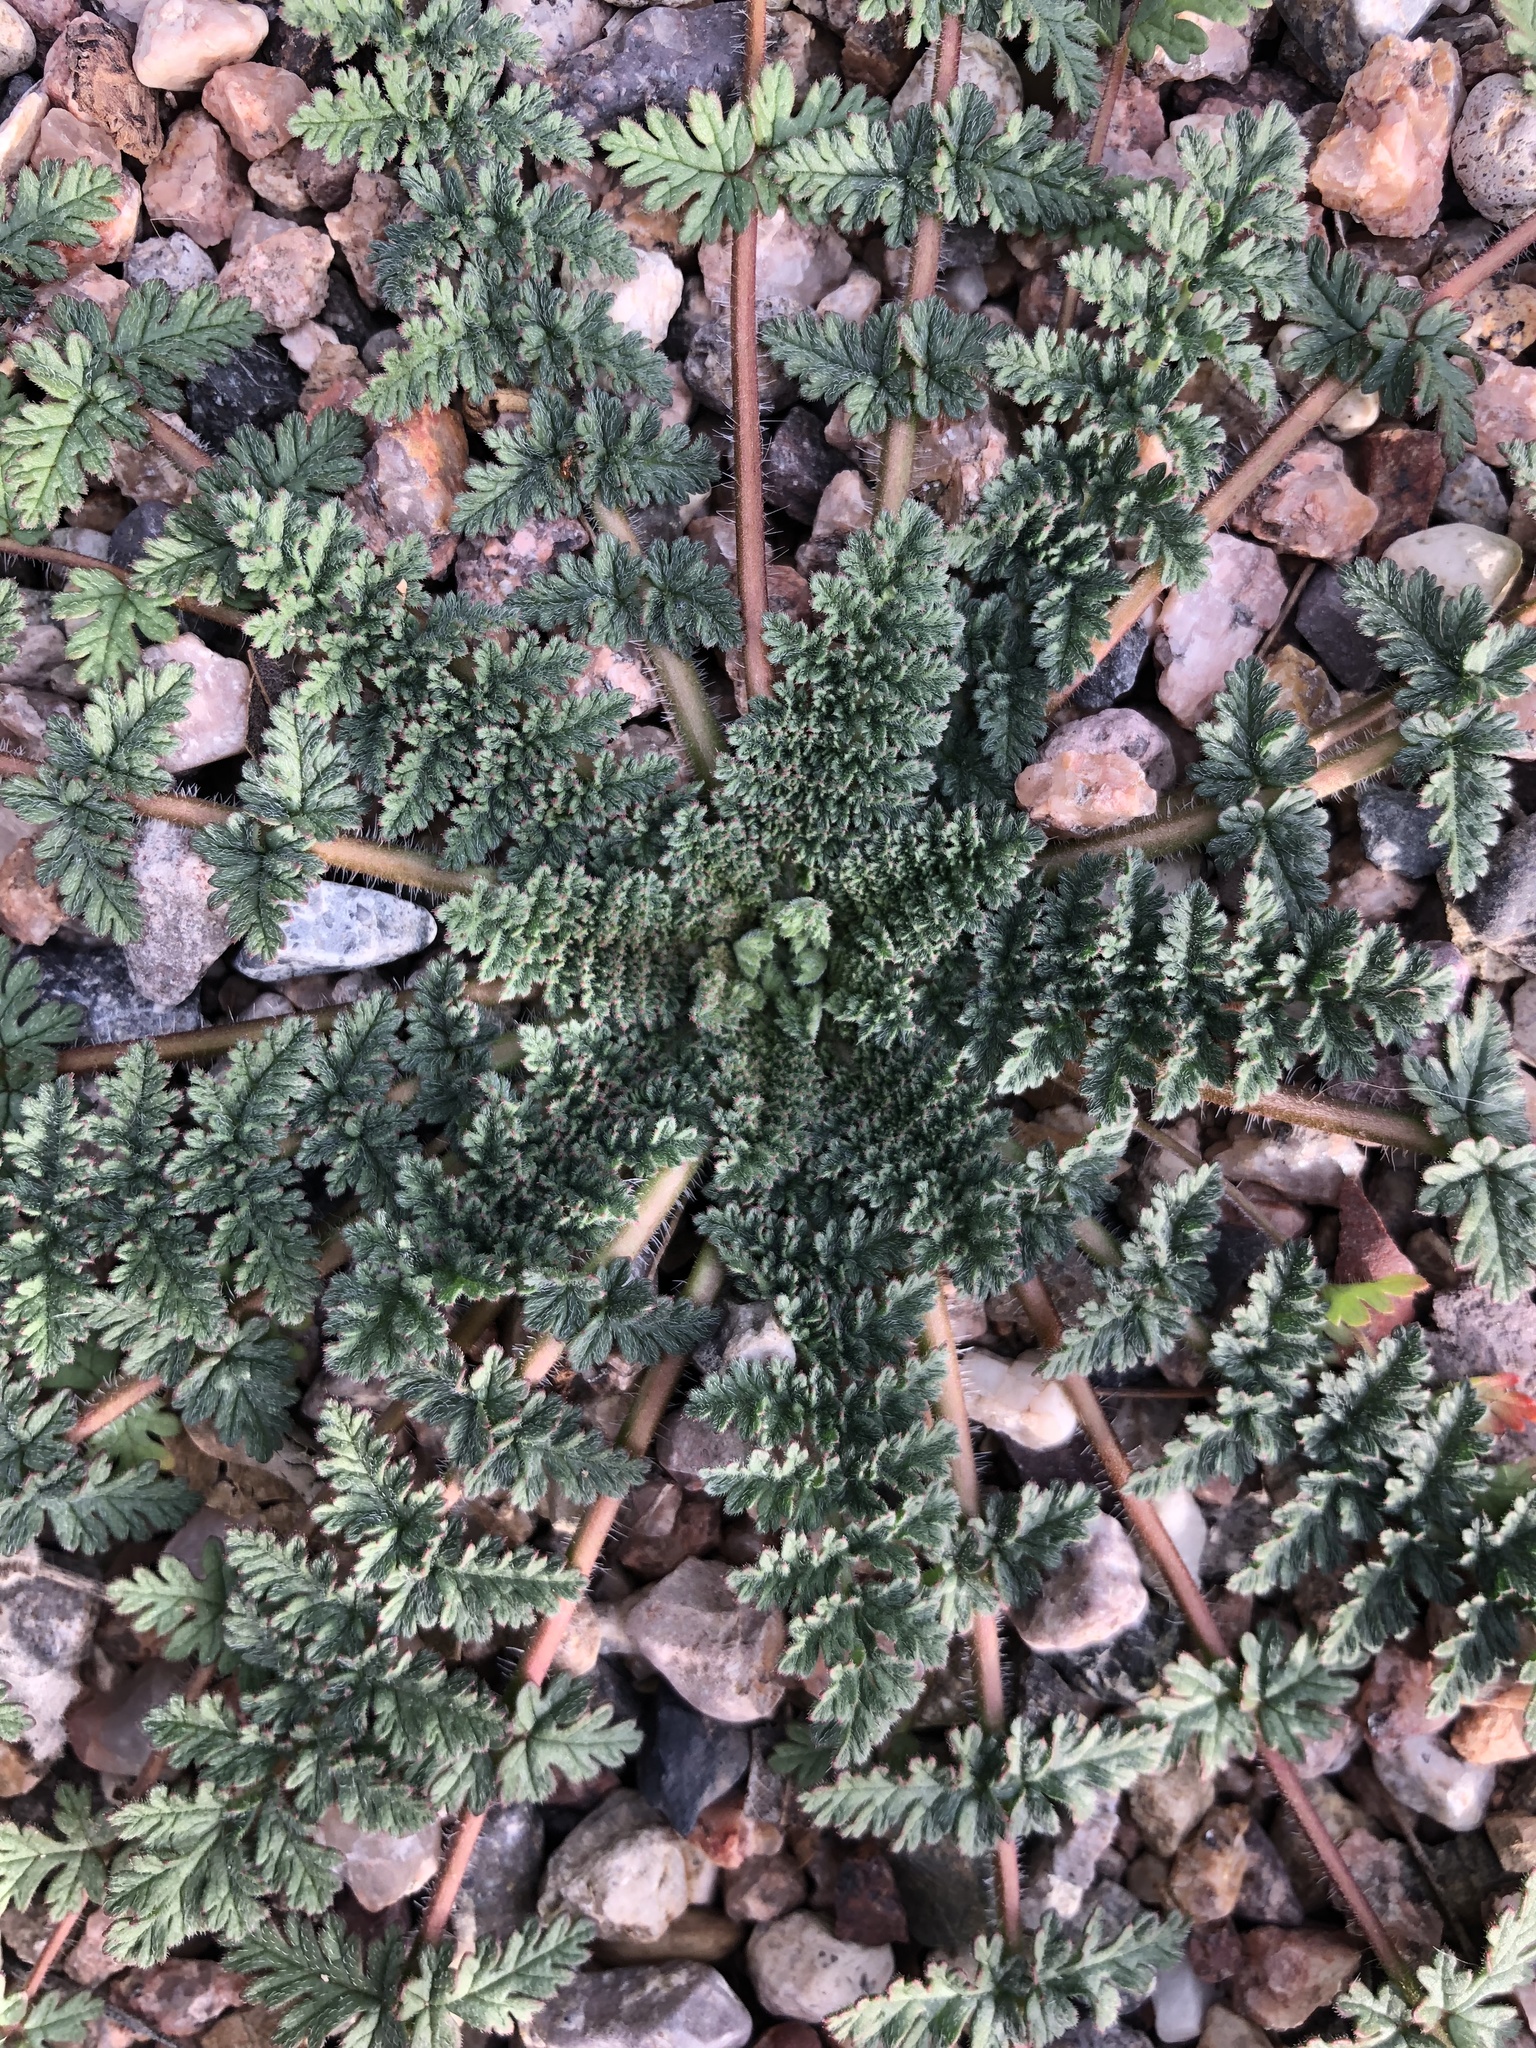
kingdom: Plantae
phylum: Tracheophyta
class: Magnoliopsida
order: Geraniales
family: Geraniaceae
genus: Erodium
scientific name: Erodium cicutarium
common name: Common stork's-bill
